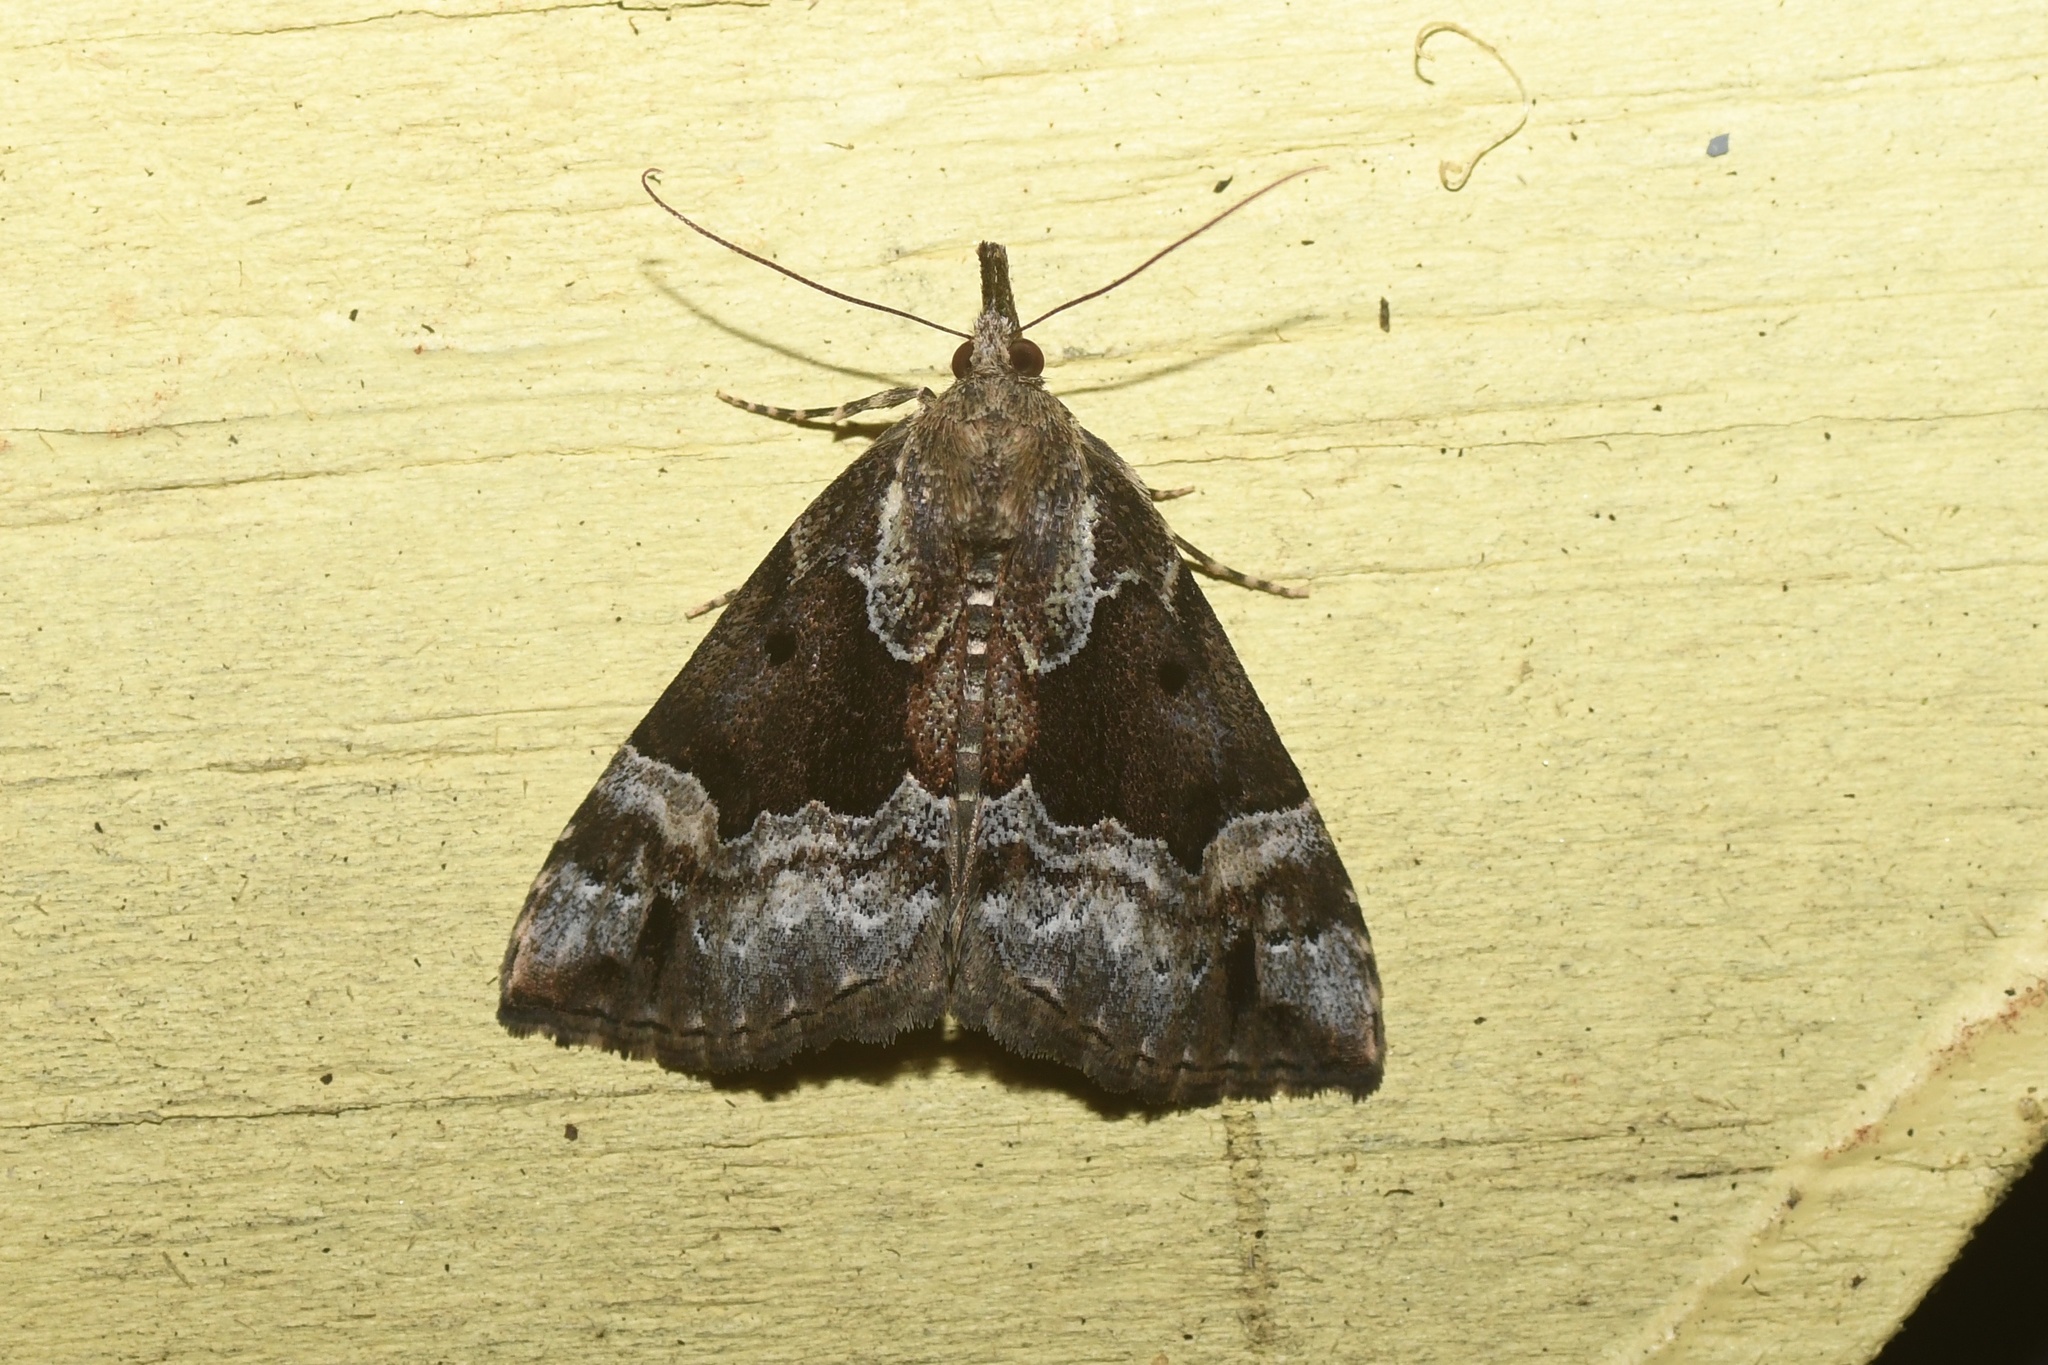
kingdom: Animalia
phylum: Arthropoda
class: Insecta
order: Lepidoptera
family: Erebidae
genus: Hypena
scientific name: Hypena palparia
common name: Mottled bomolocha moth
